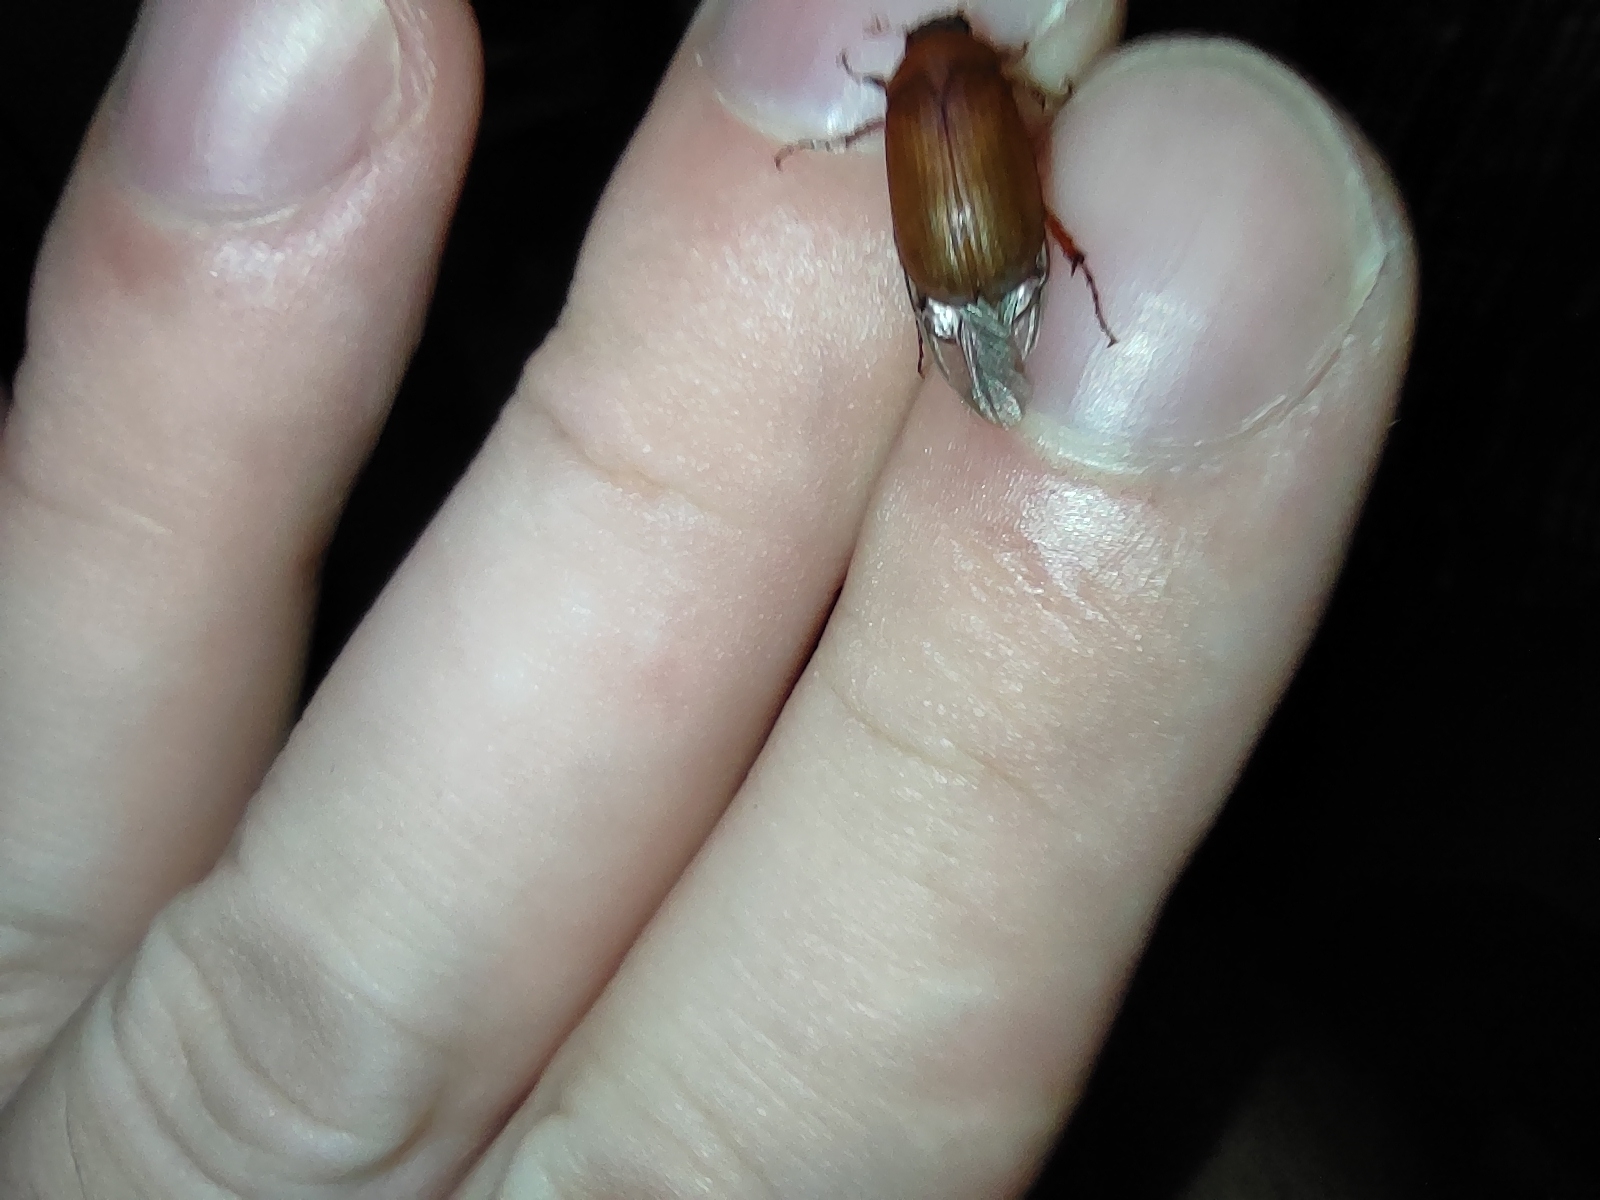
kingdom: Animalia
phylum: Arthropoda
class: Insecta
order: Coleoptera
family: Scarabaeidae
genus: Serica
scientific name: Serica brunnea
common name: Brown chafer
